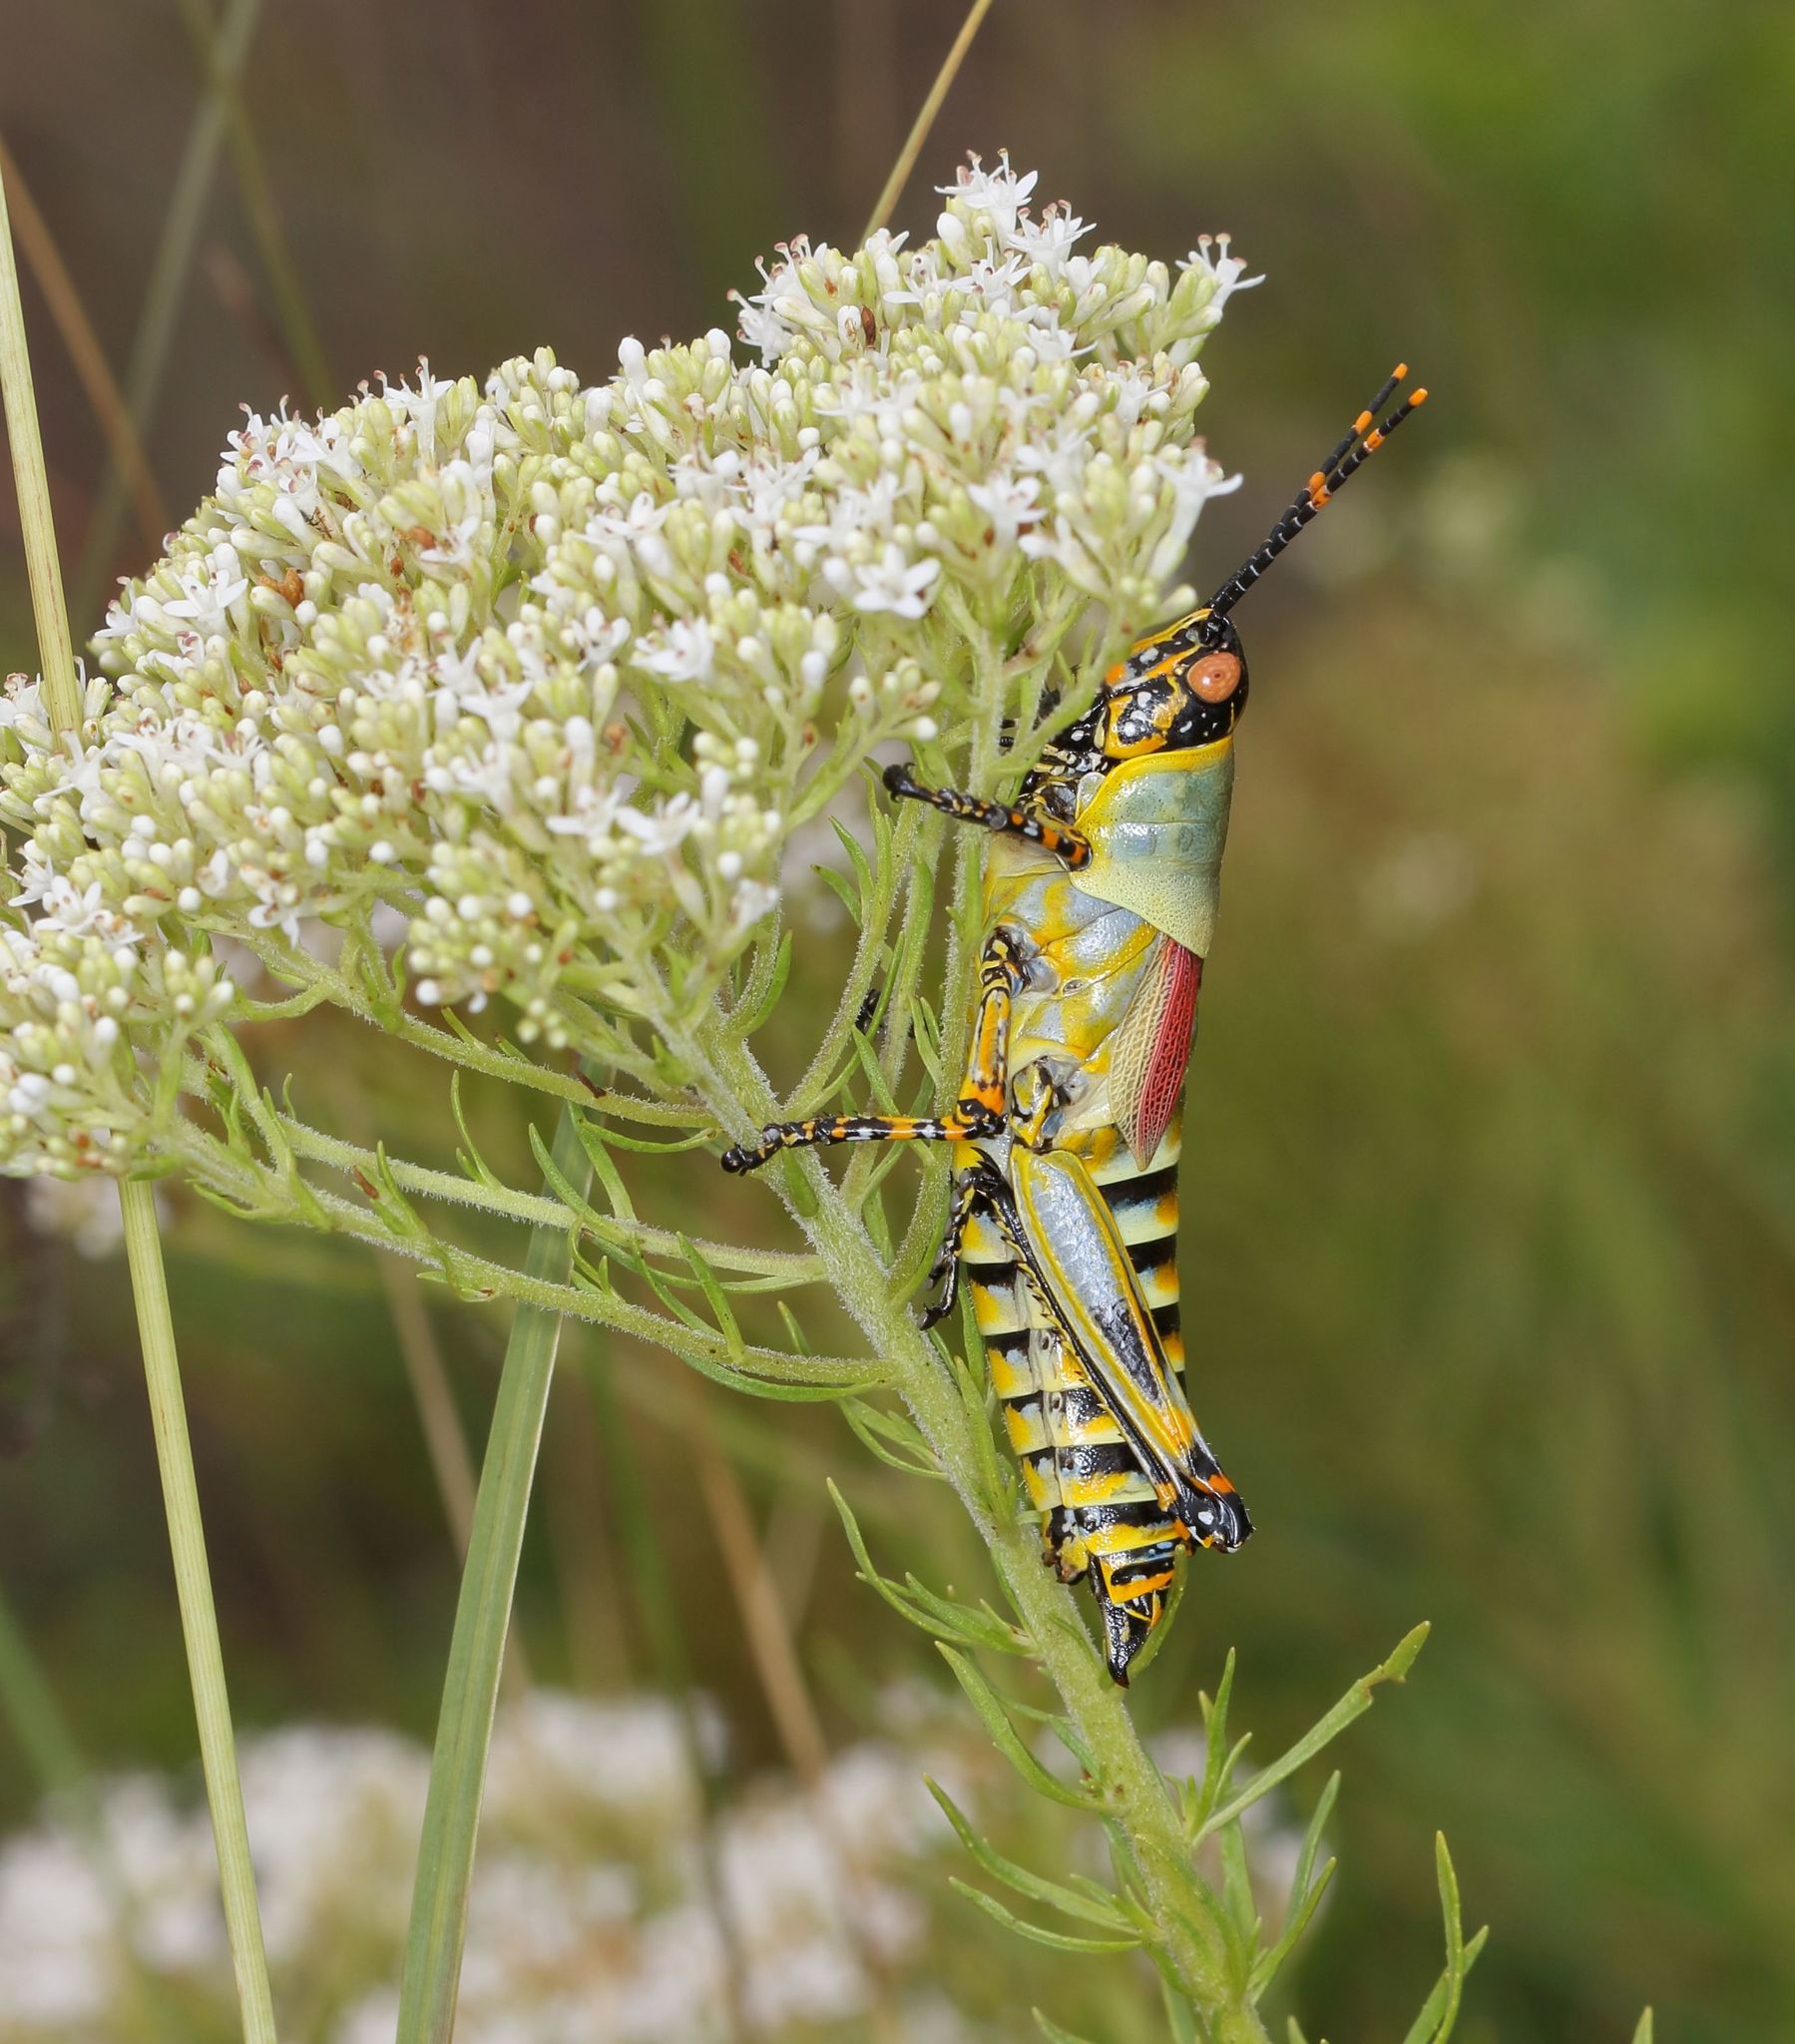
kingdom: Animalia
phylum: Arthropoda
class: Insecta
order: Orthoptera
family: Pyrgomorphidae
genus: Zonocerus
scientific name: Zonocerus elegans
